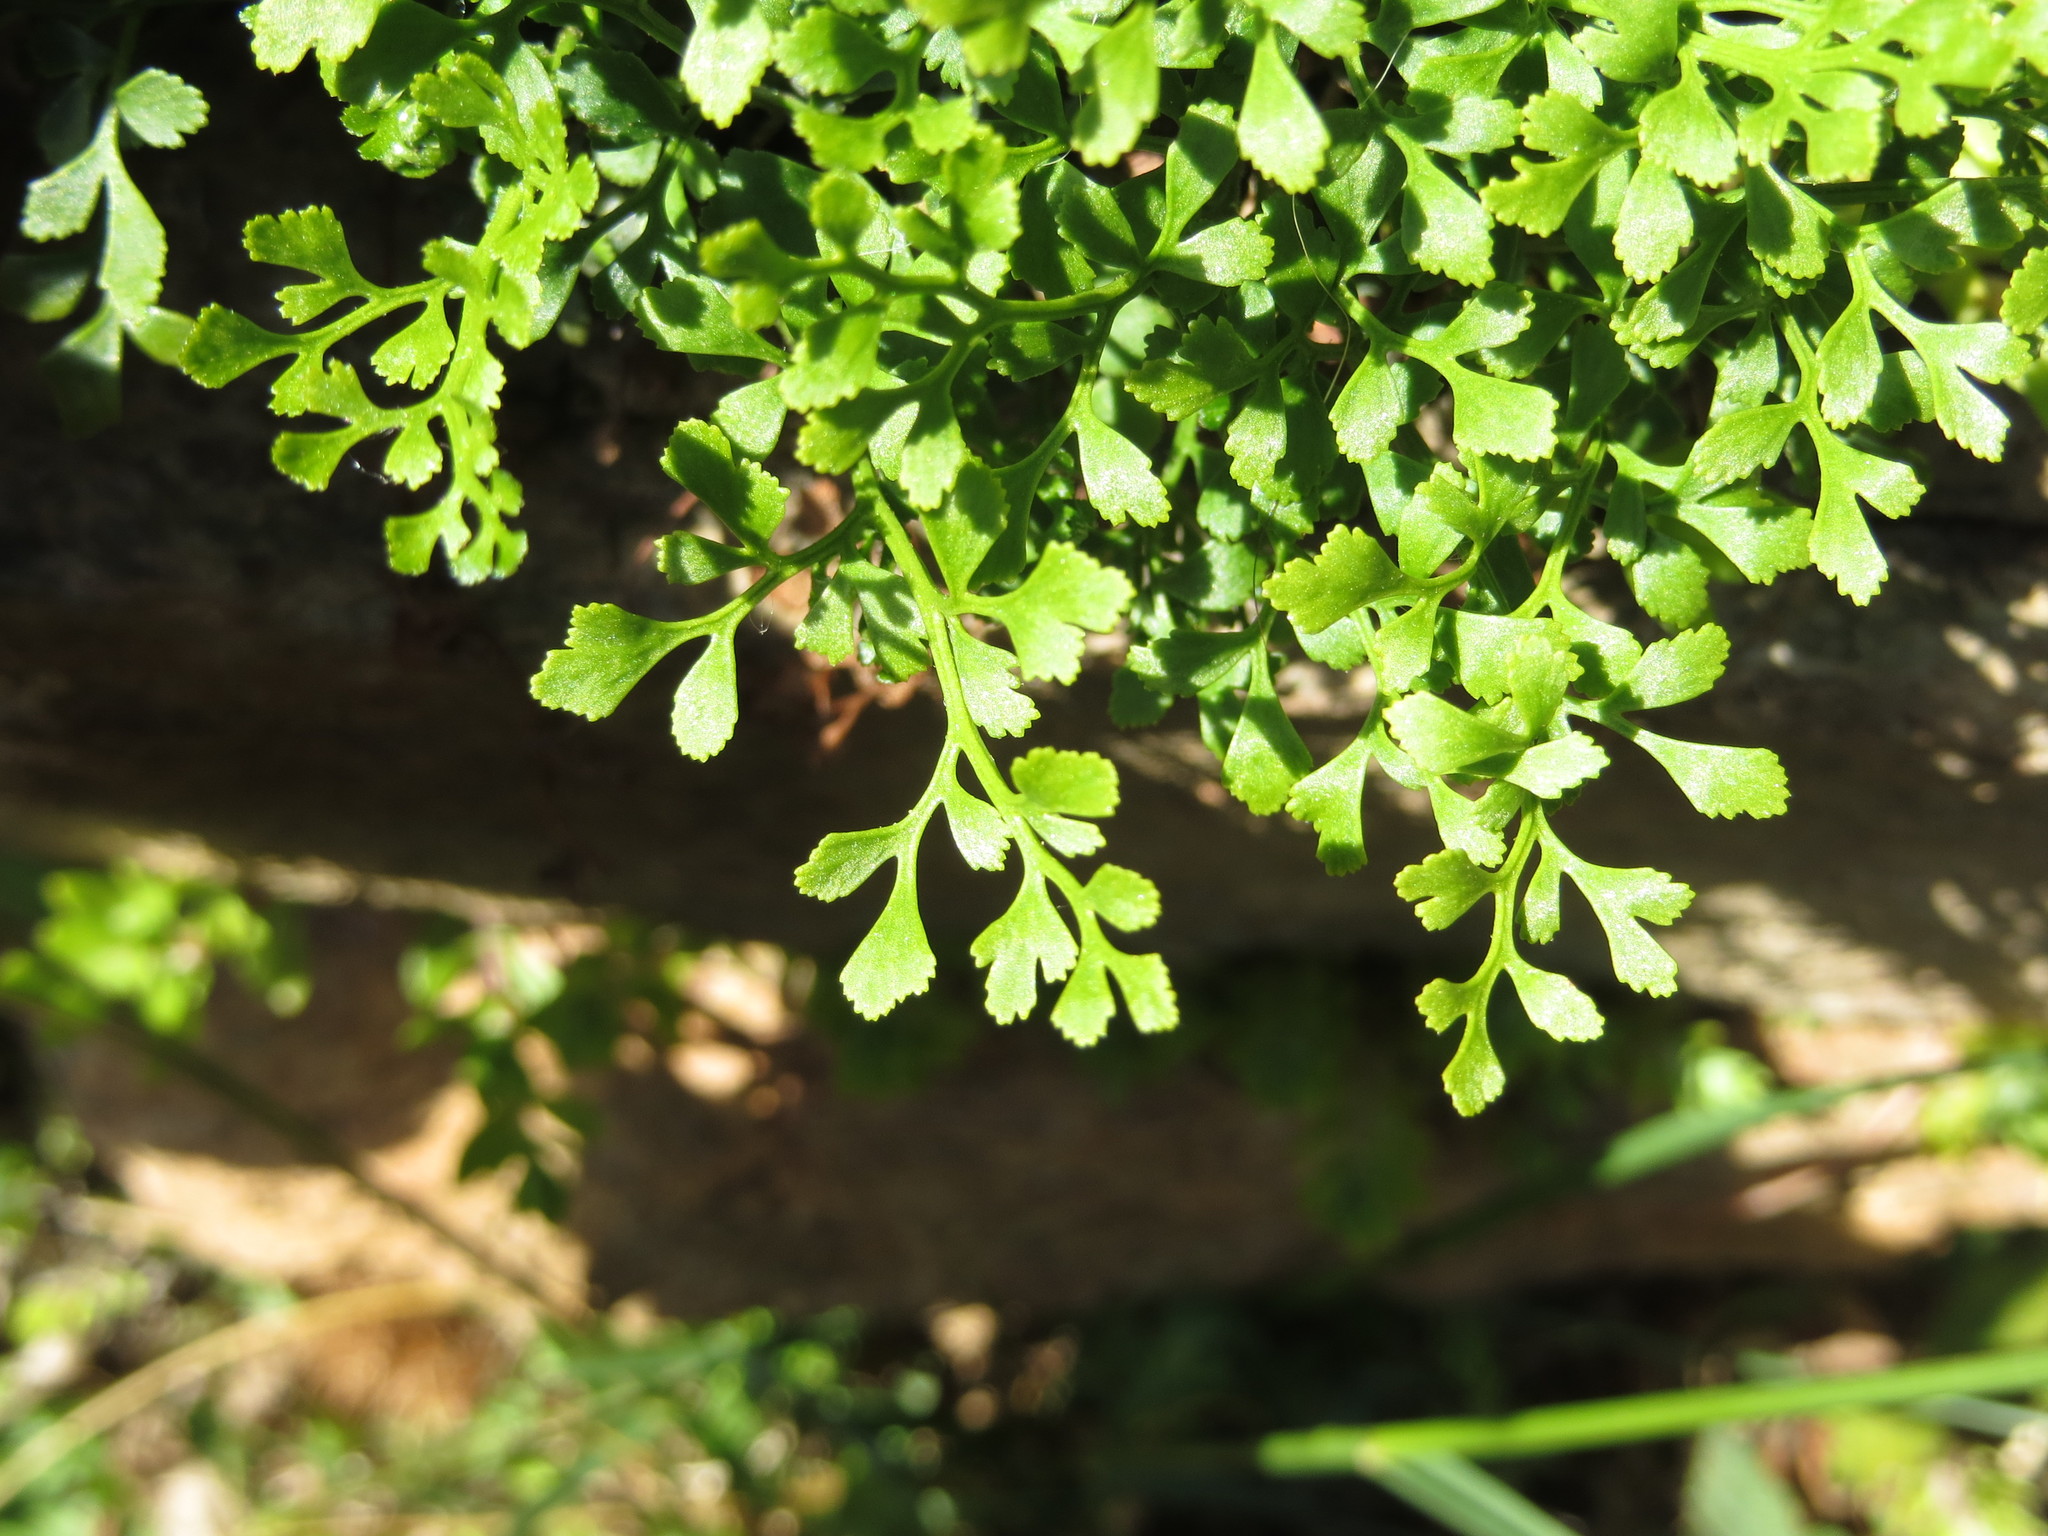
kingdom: Plantae
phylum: Tracheophyta
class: Polypodiopsida
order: Polypodiales
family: Aspleniaceae
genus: Asplenium
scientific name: Asplenium ruta-muraria
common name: Wall-rue
